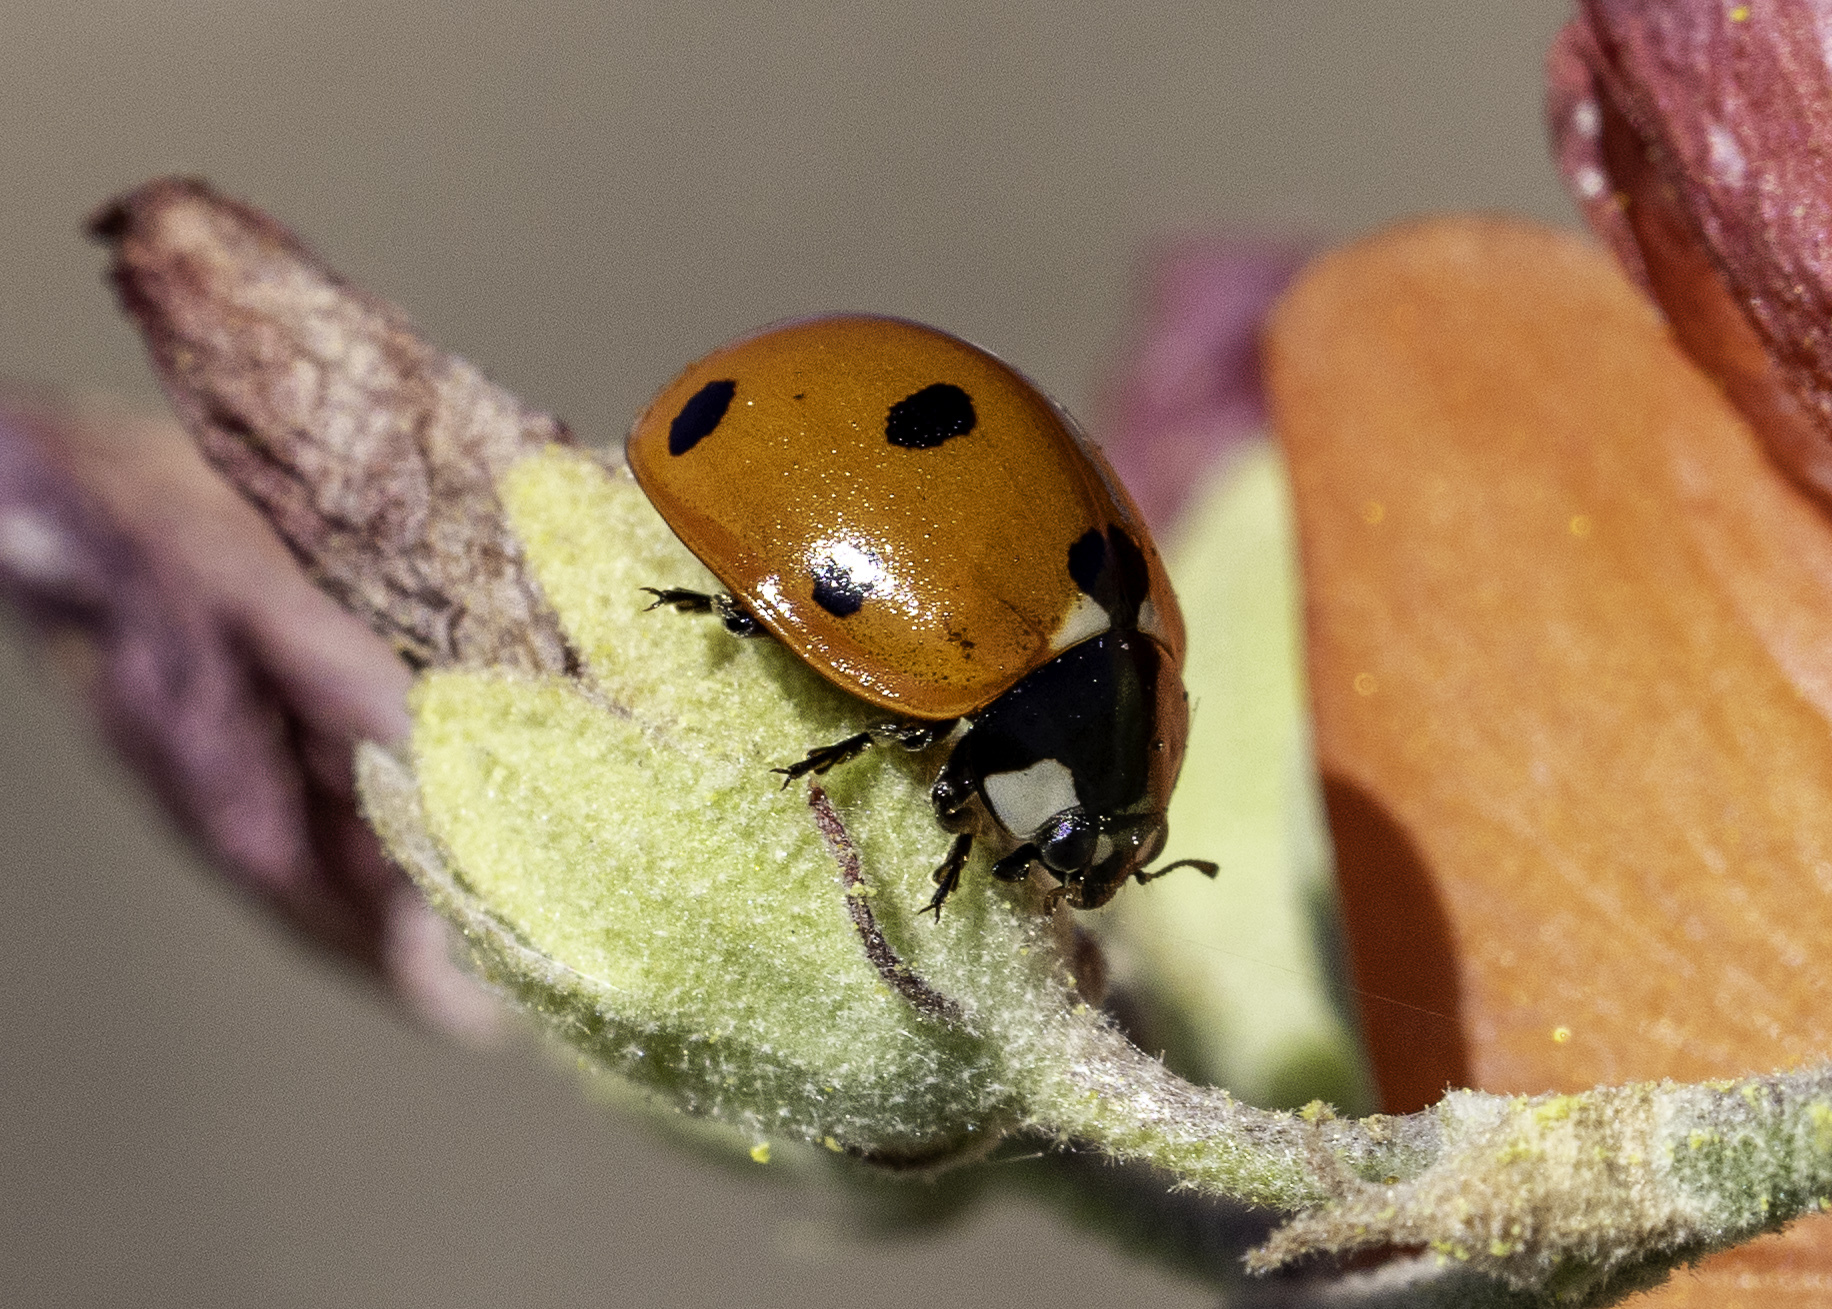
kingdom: Animalia
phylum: Arthropoda
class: Insecta
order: Coleoptera
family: Coccinellidae
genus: Coccinella
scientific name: Coccinella septempunctata
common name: Sevenspotted lady beetle
